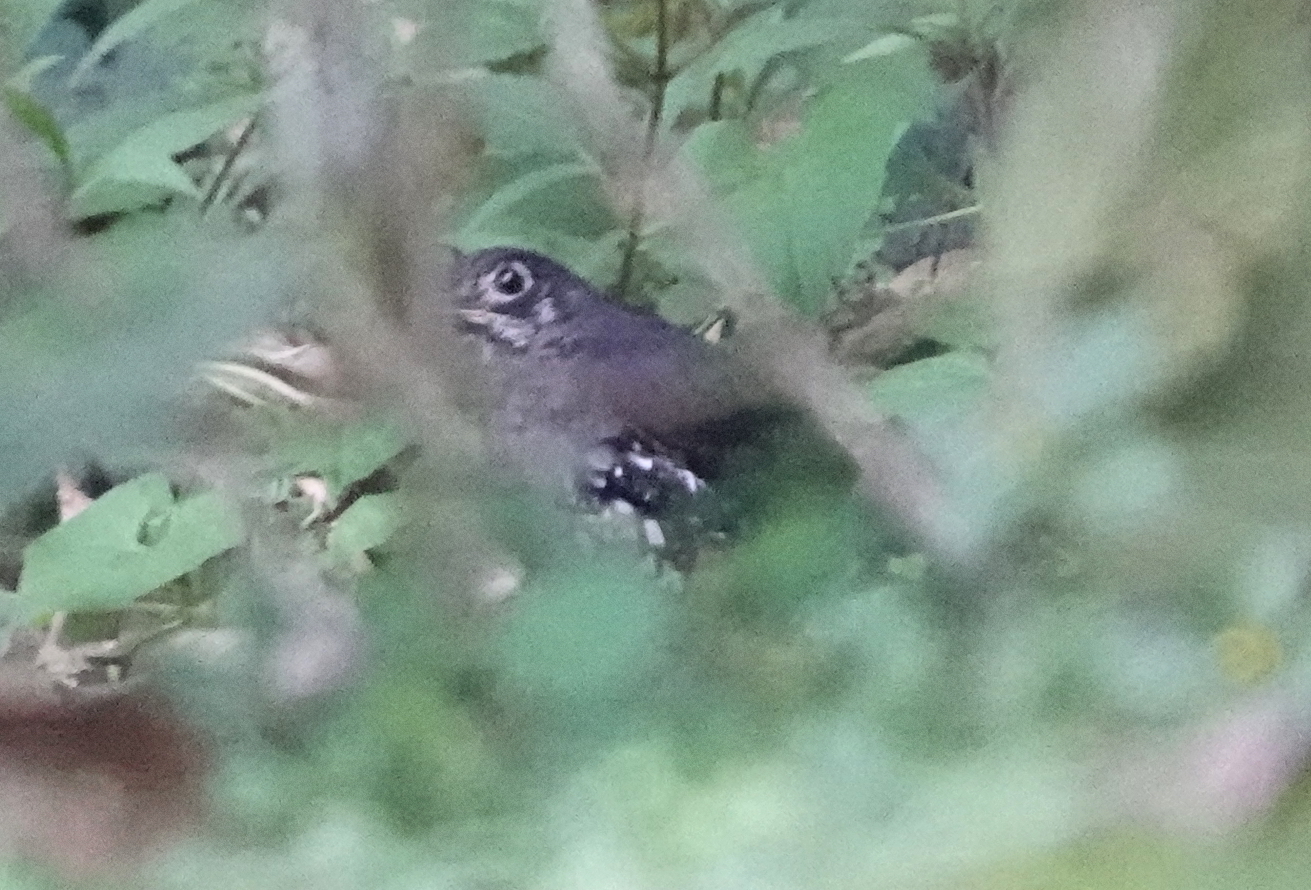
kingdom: Animalia
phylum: Chordata
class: Aves
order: Passeriformes
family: Turdidae
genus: Zoothera
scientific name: Zoothera andromedae
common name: Sunda thrush
